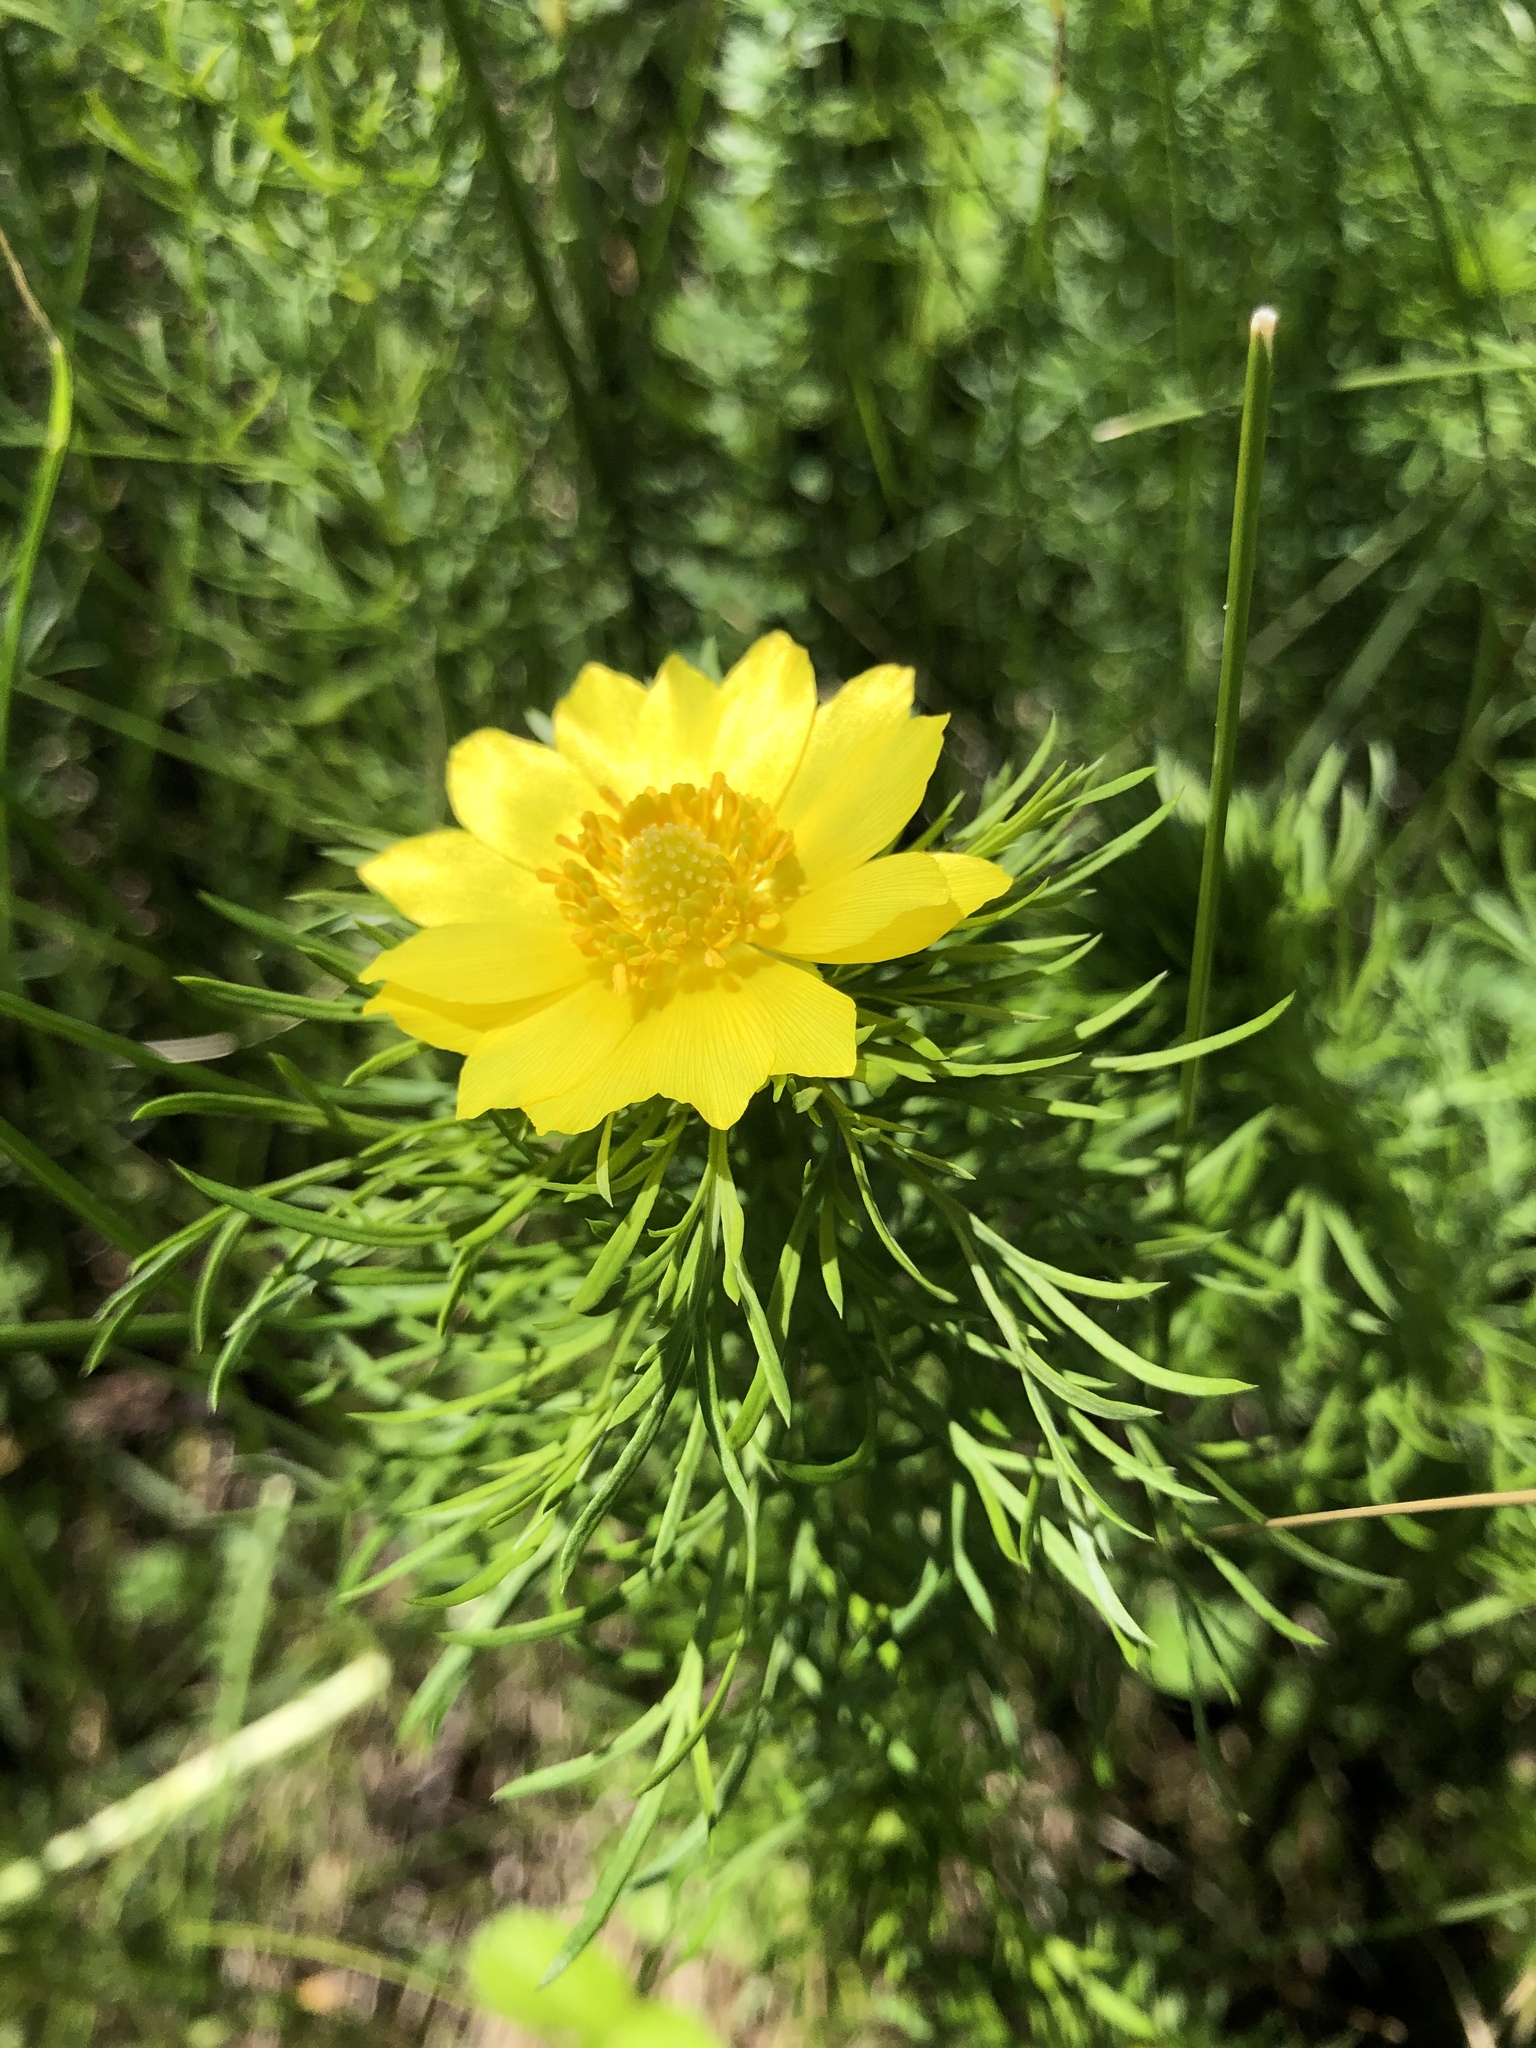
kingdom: Plantae
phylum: Tracheophyta
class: Magnoliopsida
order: Ranunculales
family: Ranunculaceae
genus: Adonis
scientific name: Adonis vernalis
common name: Yellow pheasants-eye
